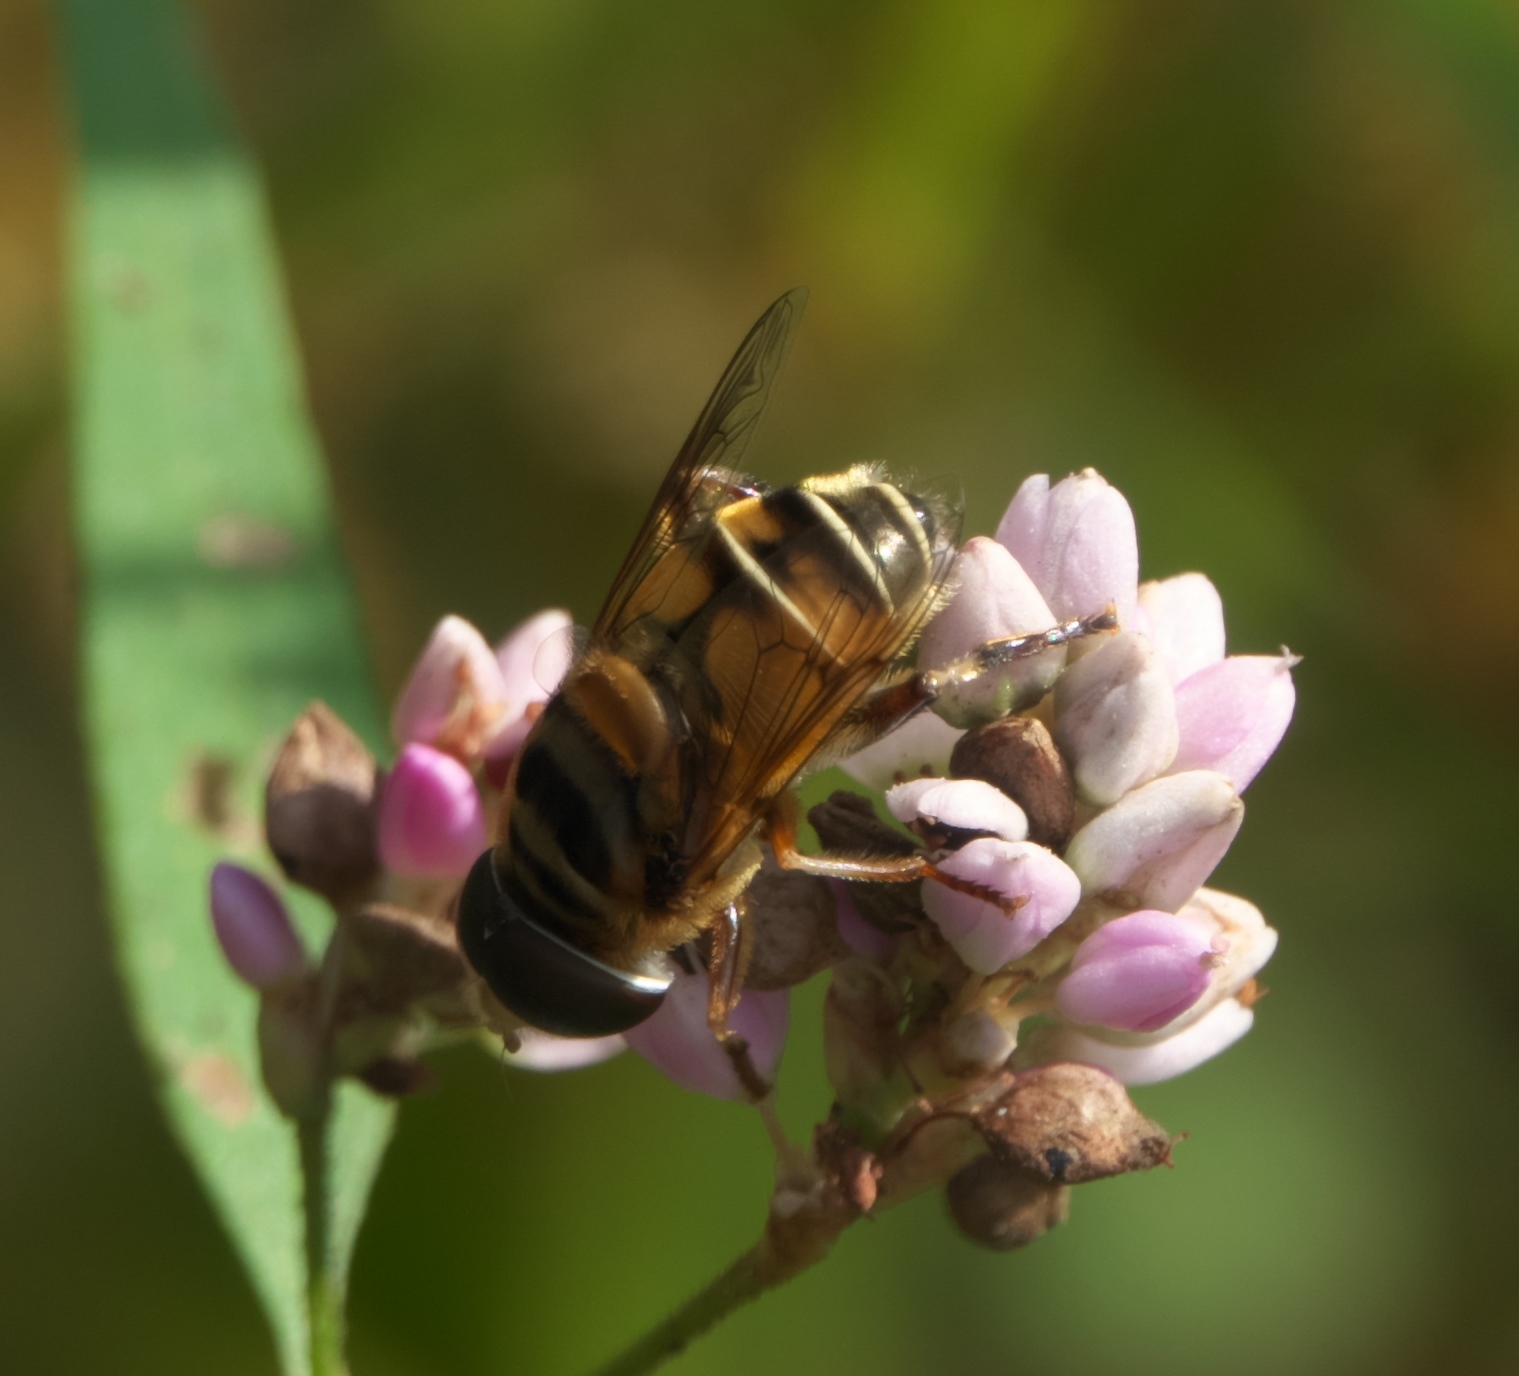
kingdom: Animalia
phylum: Arthropoda
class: Insecta
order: Diptera
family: Syrphidae
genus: Palpada
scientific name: Palpada vinetorum
